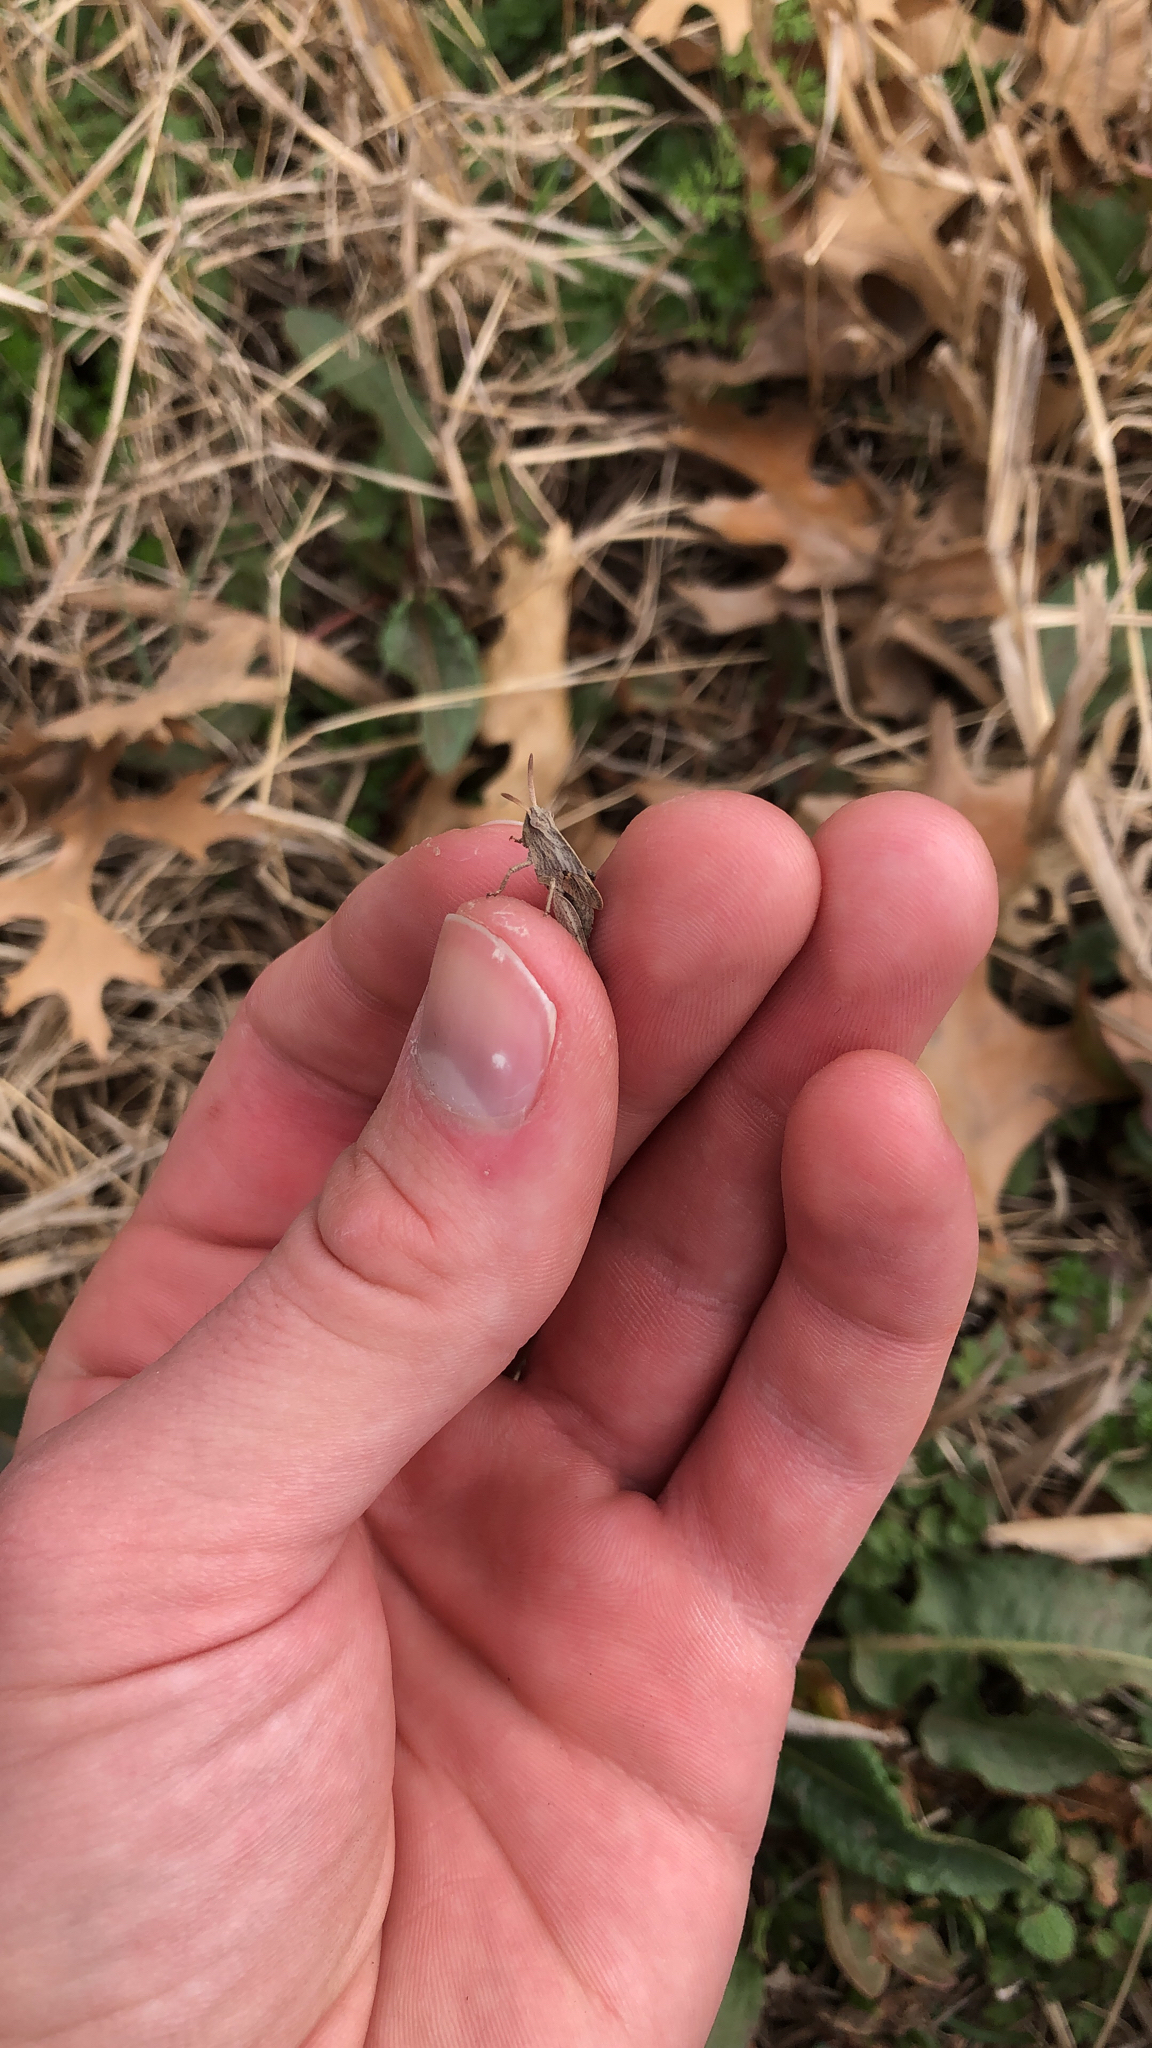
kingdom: Animalia
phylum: Arthropoda
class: Insecta
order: Orthoptera
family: Acrididae
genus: Chortophaga
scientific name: Chortophaga viridifasciata
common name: Green-striped grasshopper
